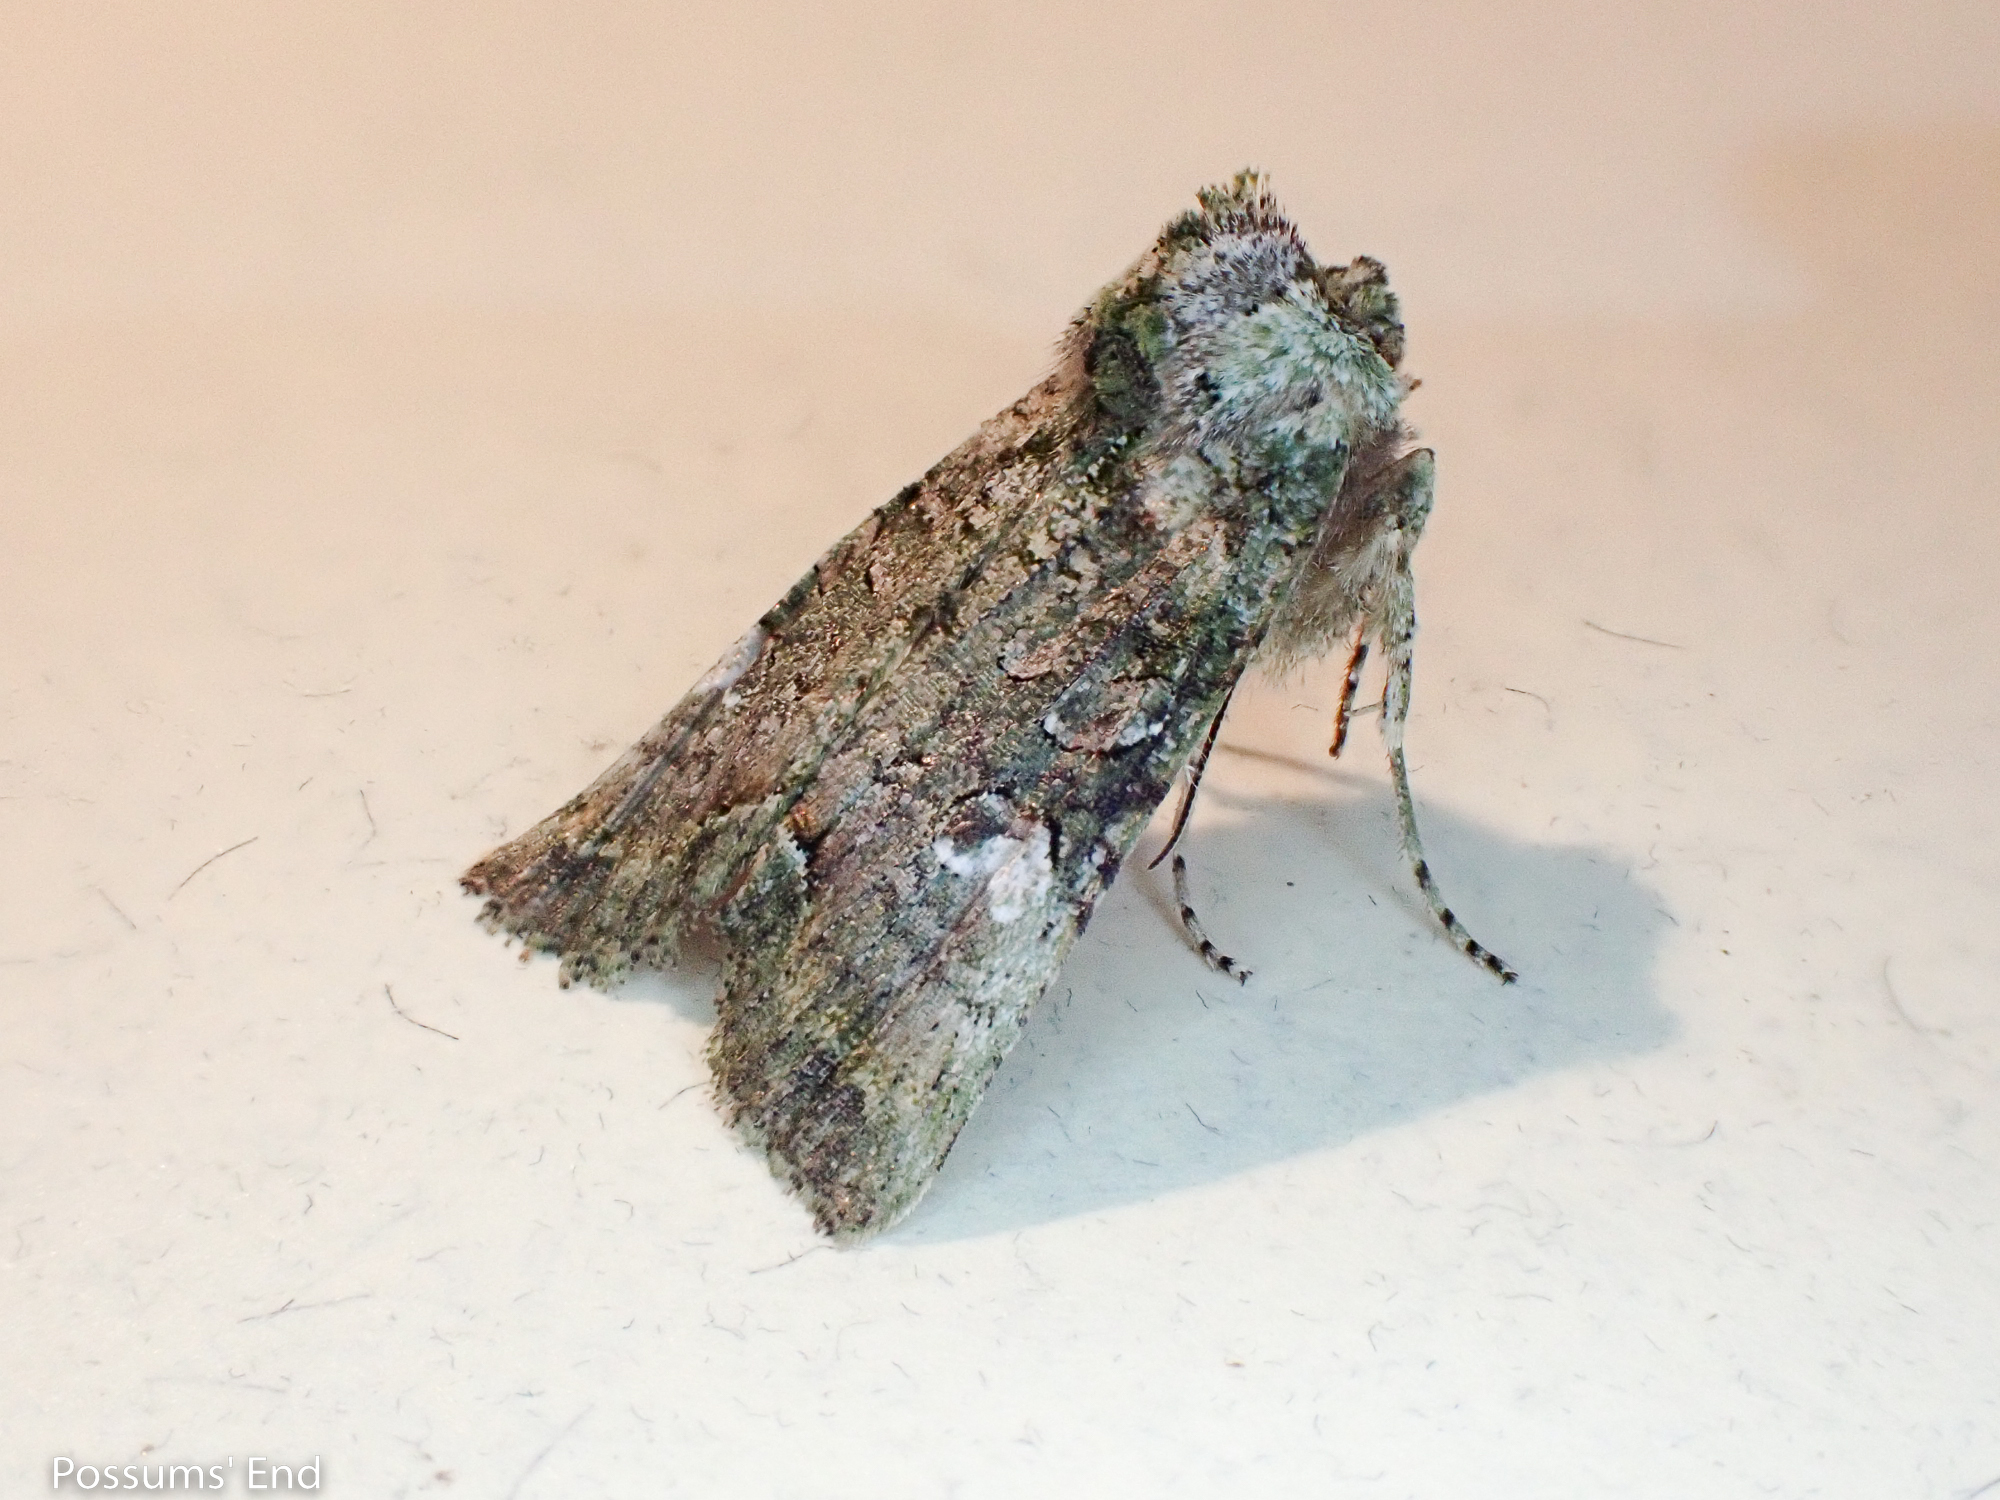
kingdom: Animalia
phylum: Arthropoda
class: Insecta
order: Lepidoptera
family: Noctuidae
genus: Meterana
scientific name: Meterana levis
